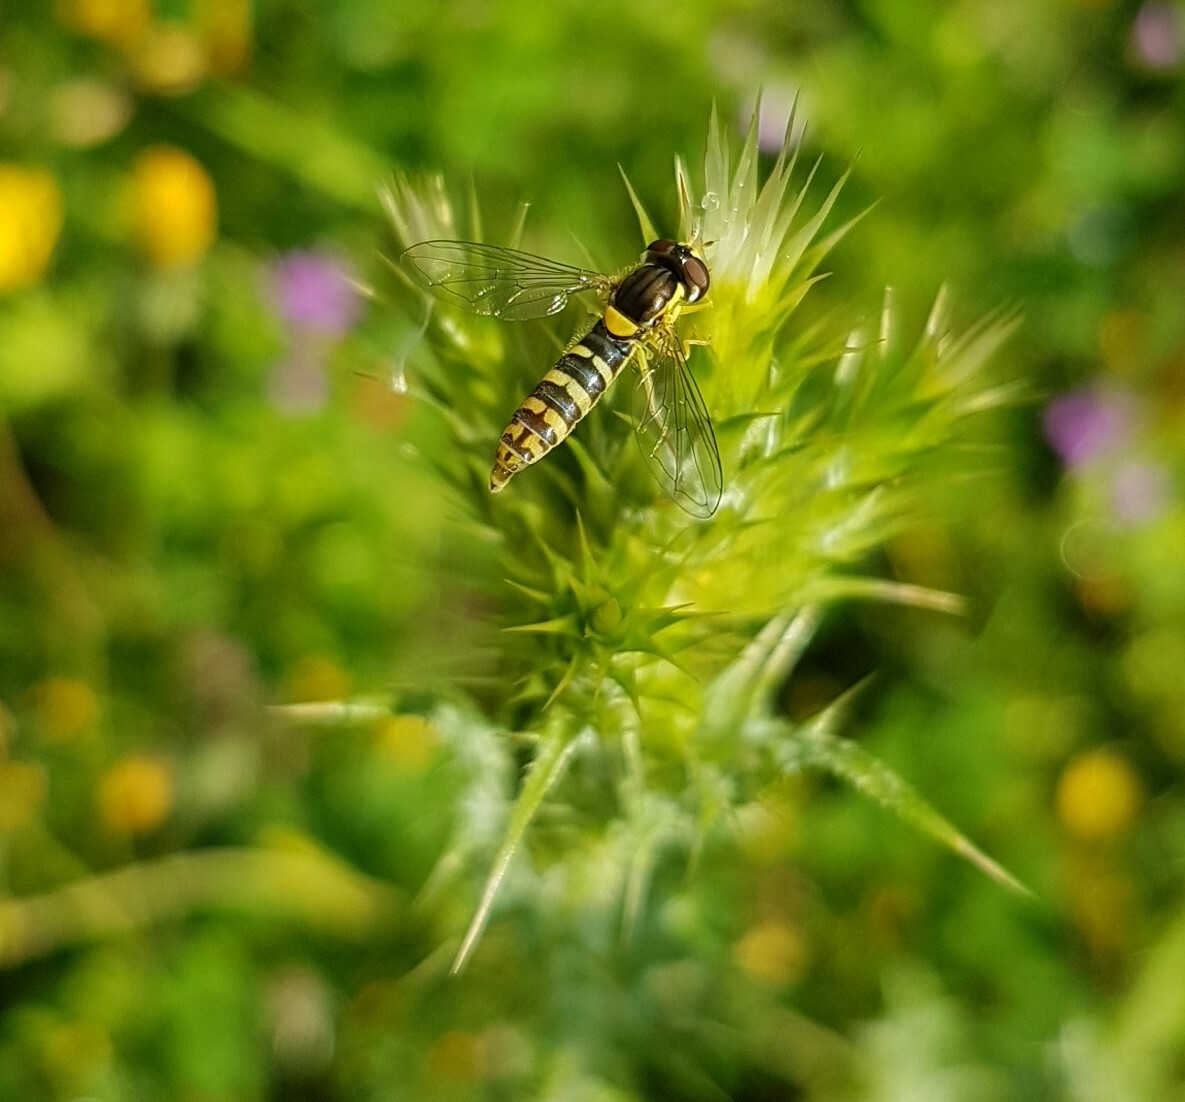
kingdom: Animalia
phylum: Arthropoda
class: Insecta
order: Diptera
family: Syrphidae
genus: Sphaerophoria
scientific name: Sphaerophoria
